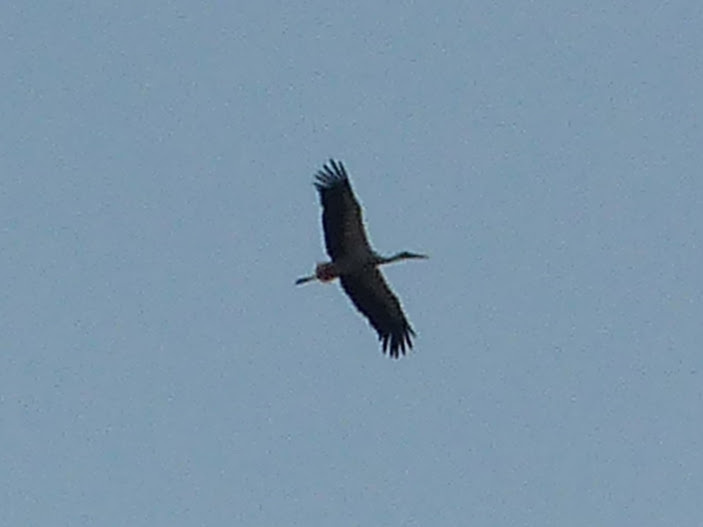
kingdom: Animalia
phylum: Chordata
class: Aves
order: Ciconiiformes
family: Ciconiidae
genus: Ciconia
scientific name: Ciconia ciconia
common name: White stork
